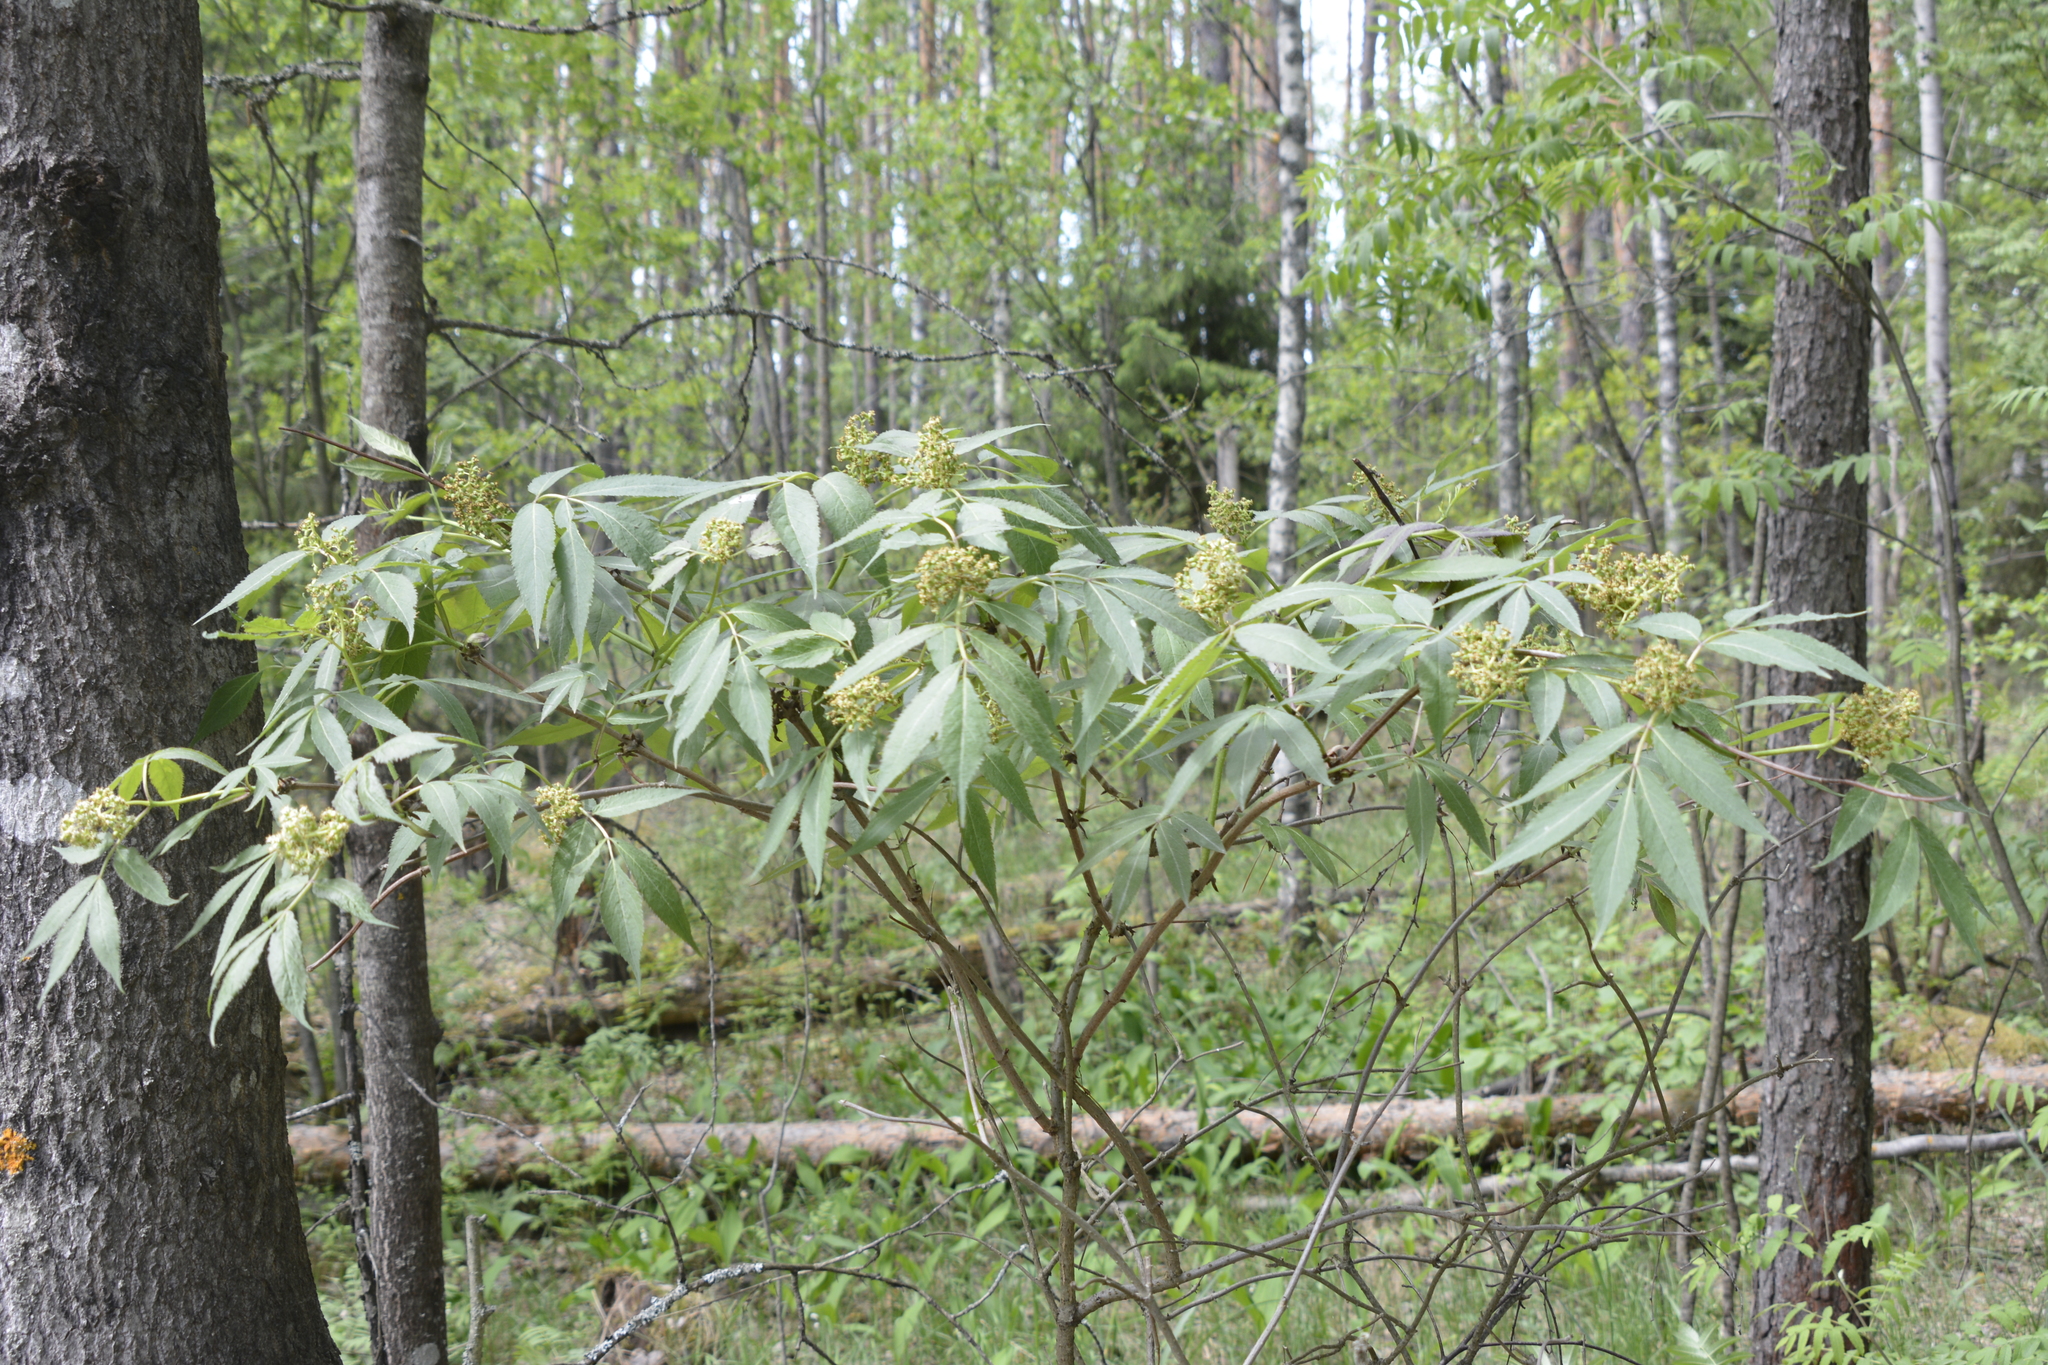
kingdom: Plantae
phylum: Tracheophyta
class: Magnoliopsida
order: Dipsacales
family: Viburnaceae
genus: Sambucus
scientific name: Sambucus racemosa
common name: Red-berried elder
